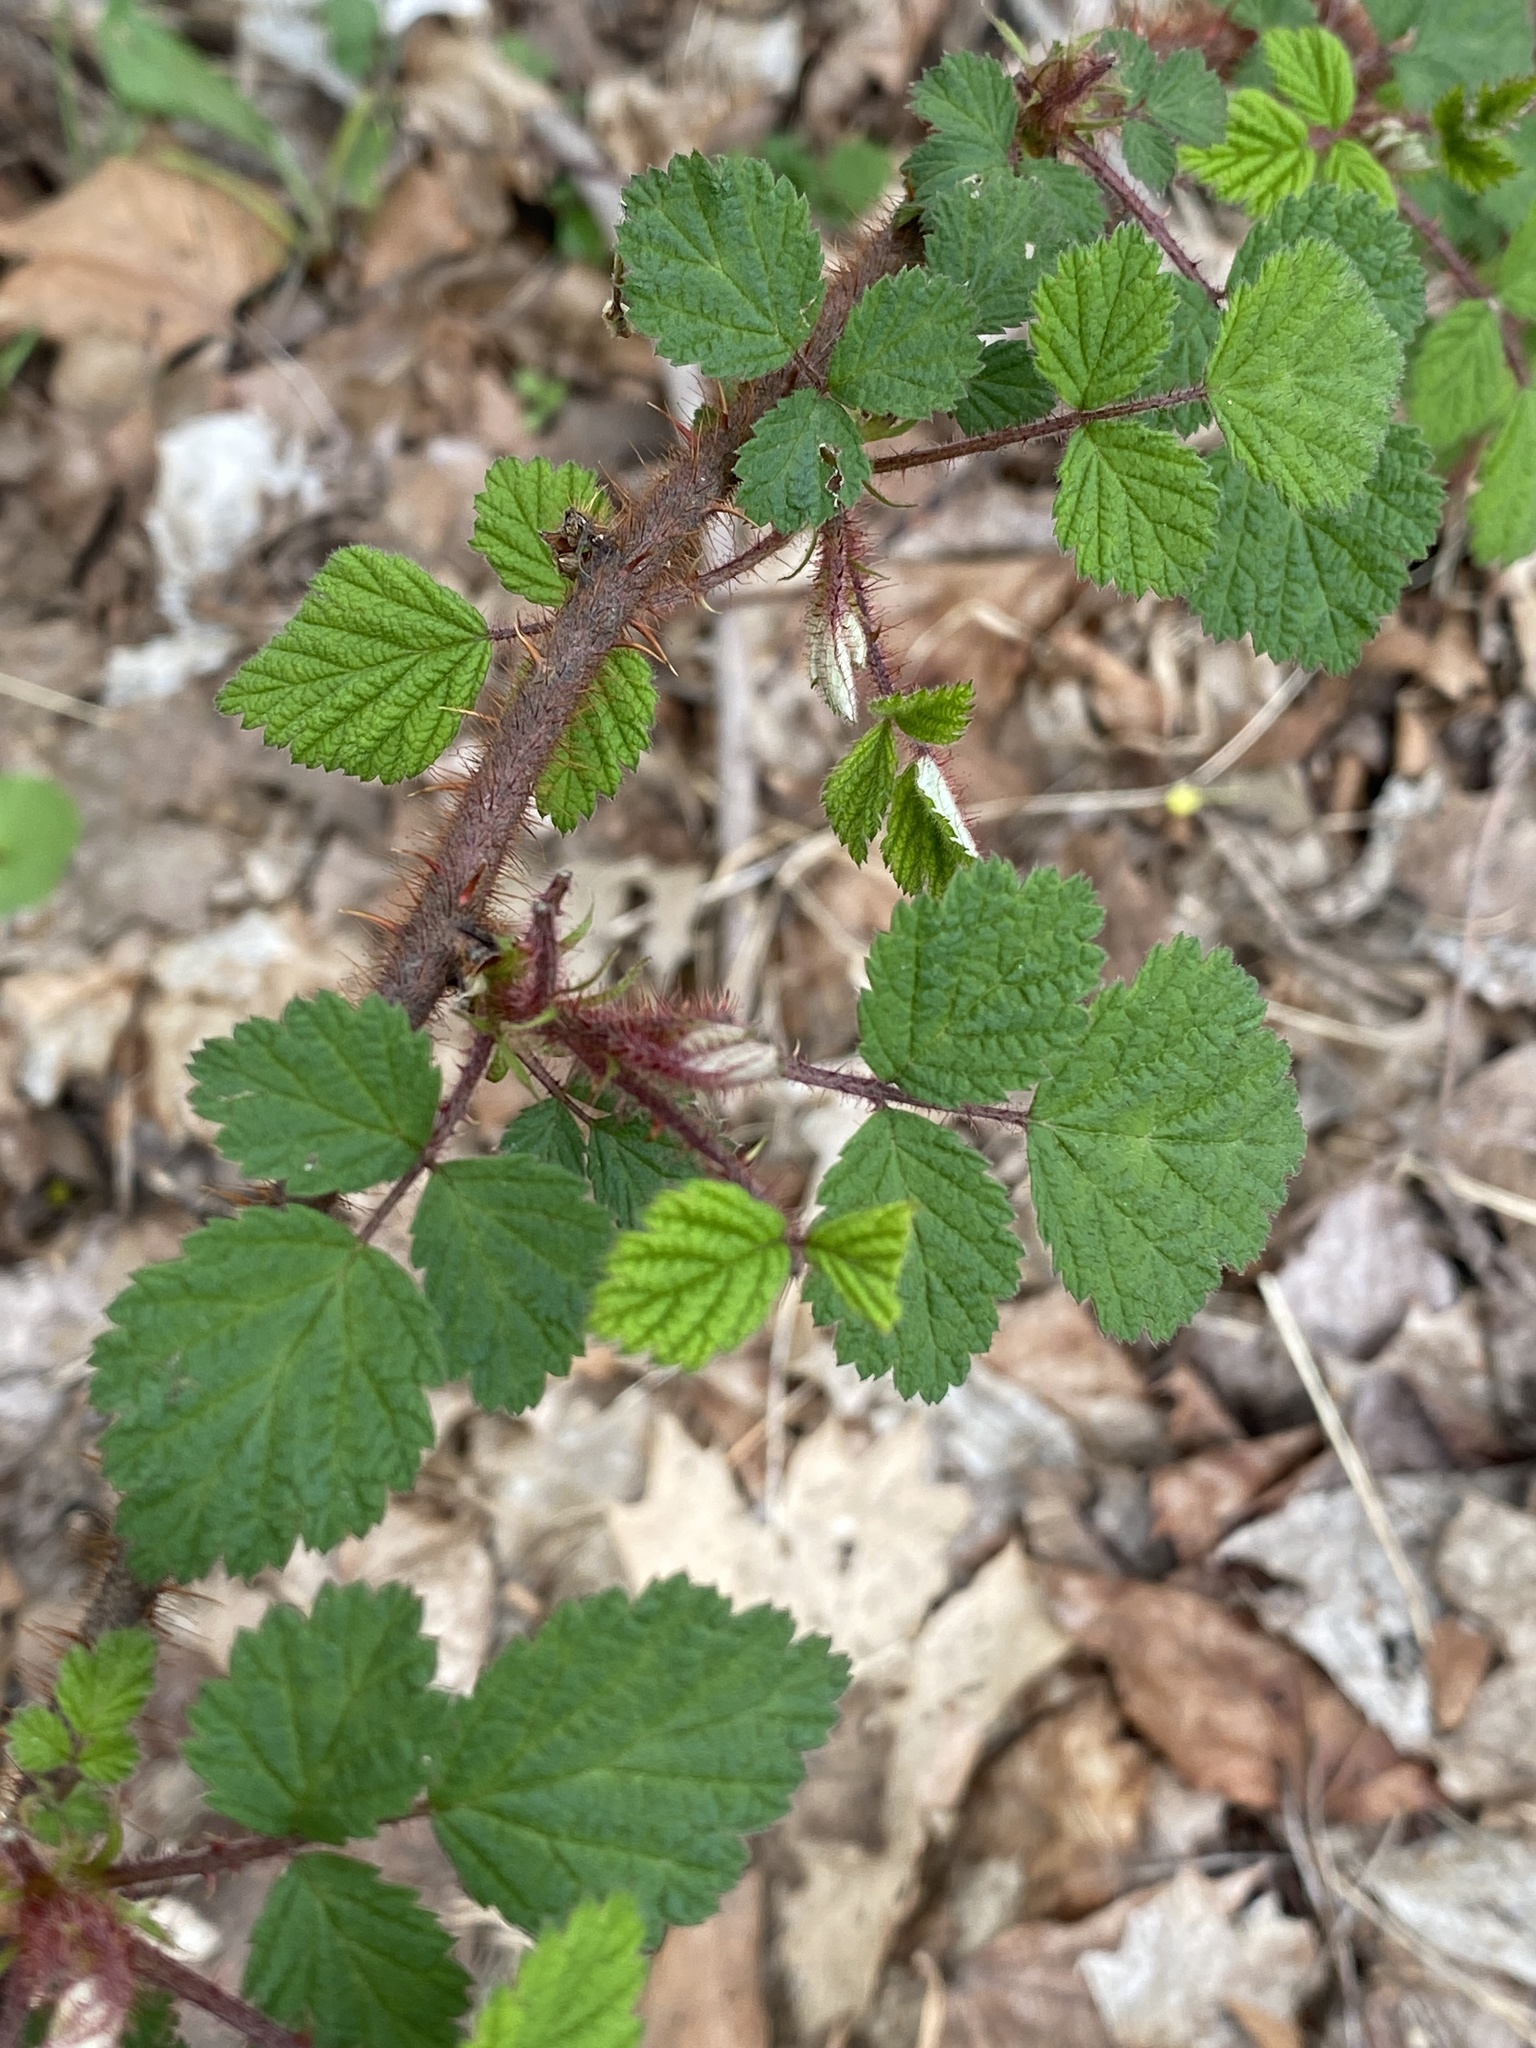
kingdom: Plantae
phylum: Tracheophyta
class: Magnoliopsida
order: Rosales
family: Rosaceae
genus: Rubus
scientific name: Rubus phoenicolasius
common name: Japanese wineberry
